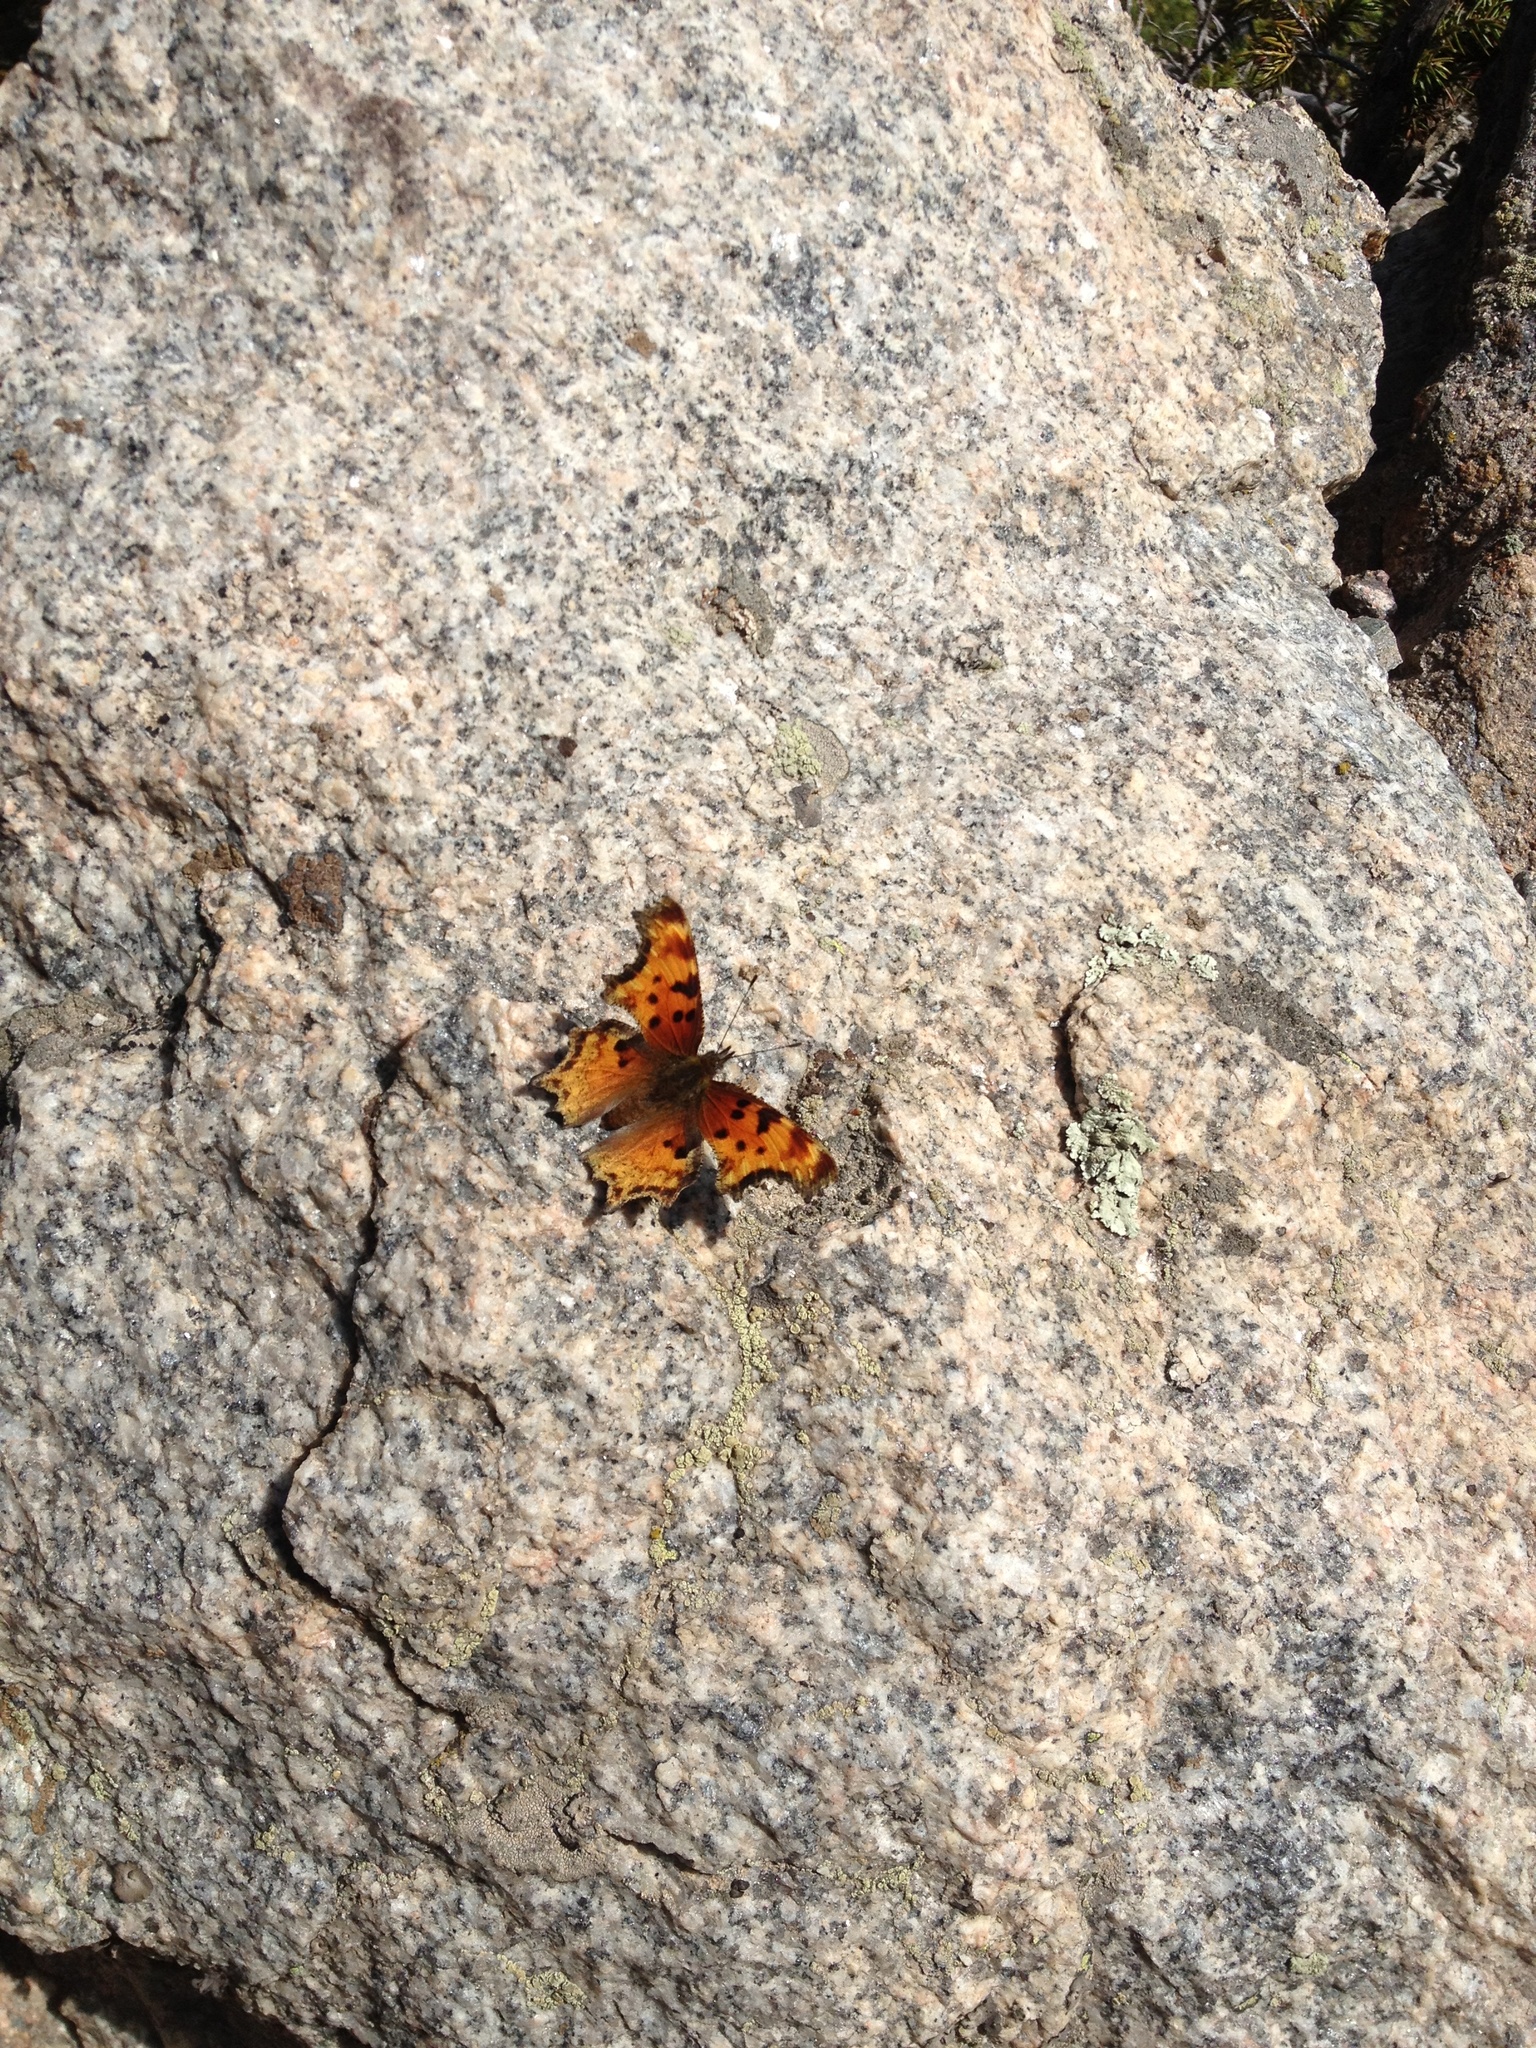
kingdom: Animalia
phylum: Arthropoda
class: Insecta
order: Lepidoptera
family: Nymphalidae
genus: Polygonia
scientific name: Polygonia gracilis
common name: Hoary comma
